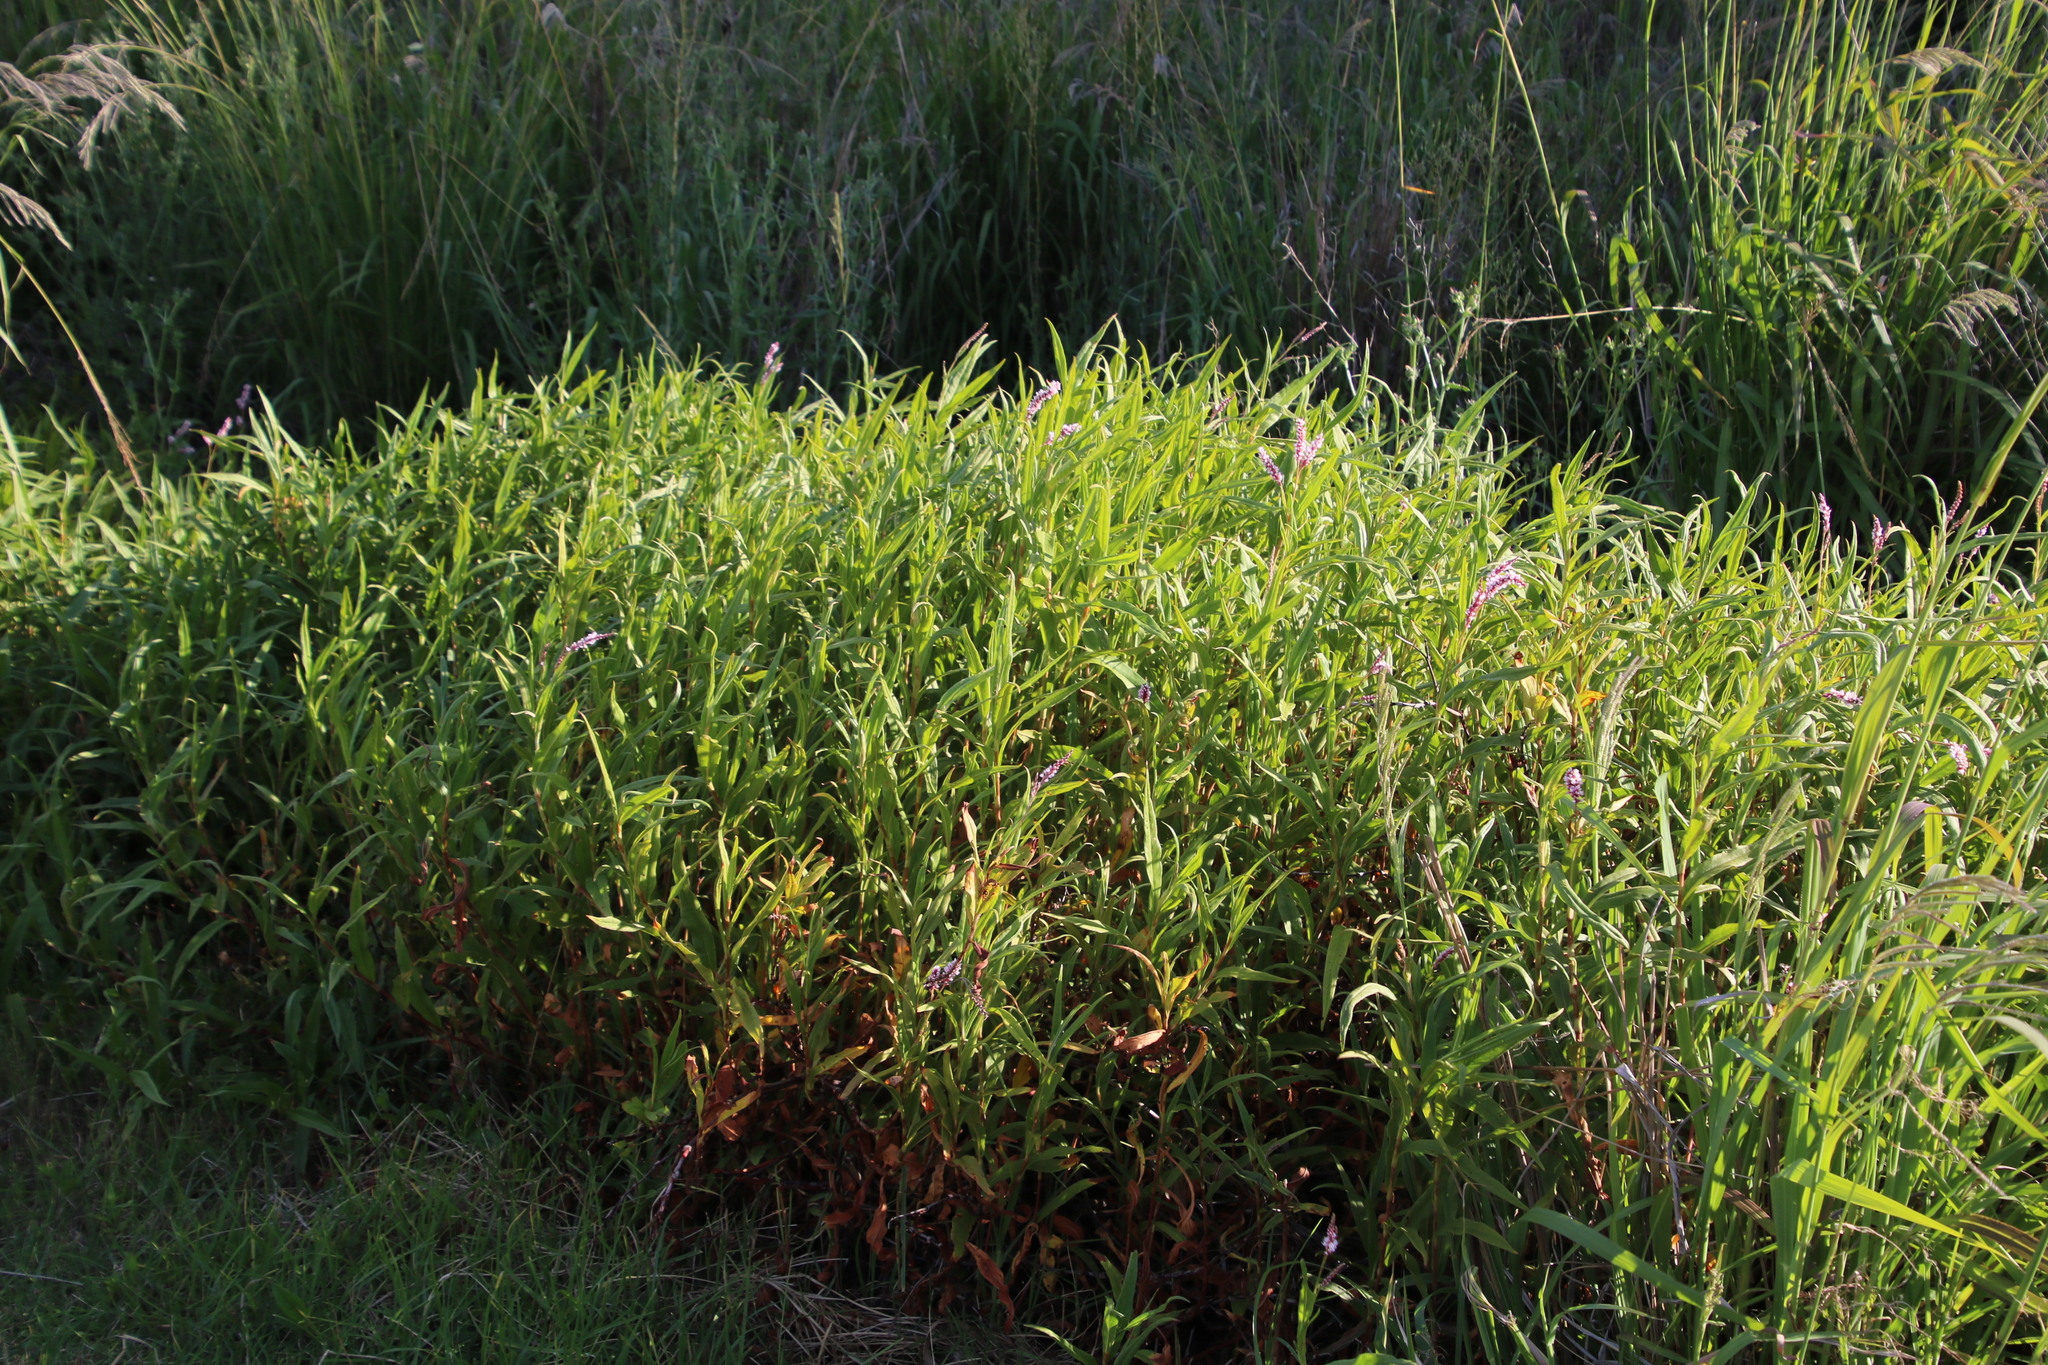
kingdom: Plantae
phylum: Tracheophyta
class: Magnoliopsida
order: Caryophyllales
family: Polygonaceae
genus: Persicaria
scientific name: Persicaria madagascariensis
